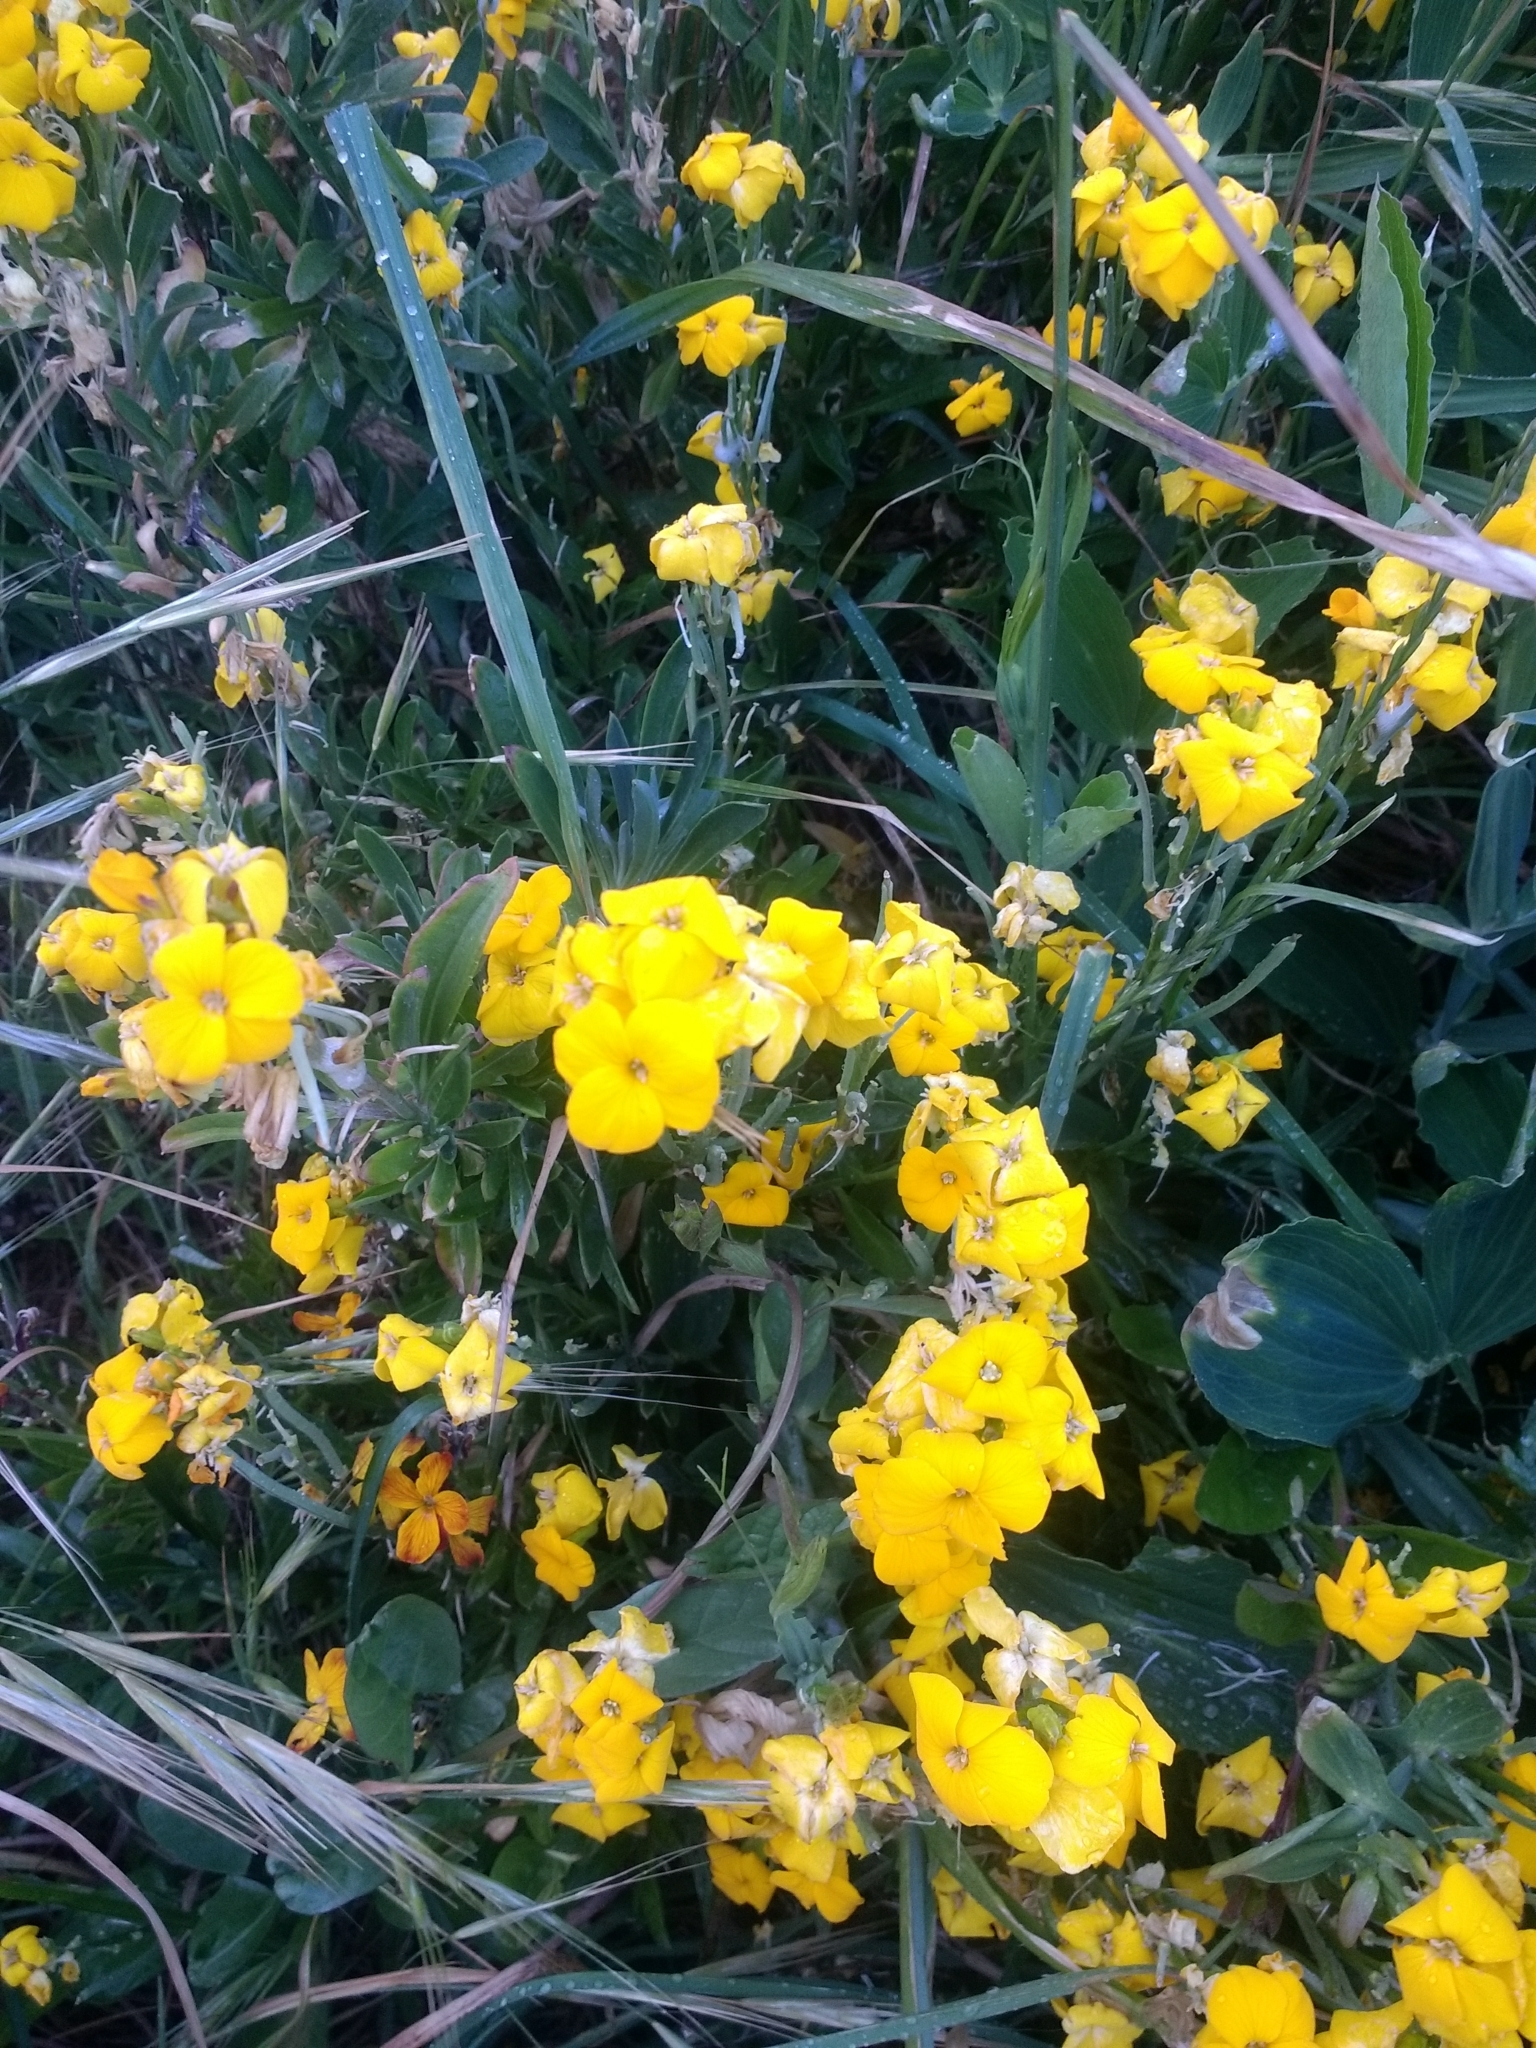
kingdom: Plantae
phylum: Tracheophyta
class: Magnoliopsida
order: Brassicales
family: Brassicaceae
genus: Erysimum
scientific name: Erysimum cheiri
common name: Wallflower
